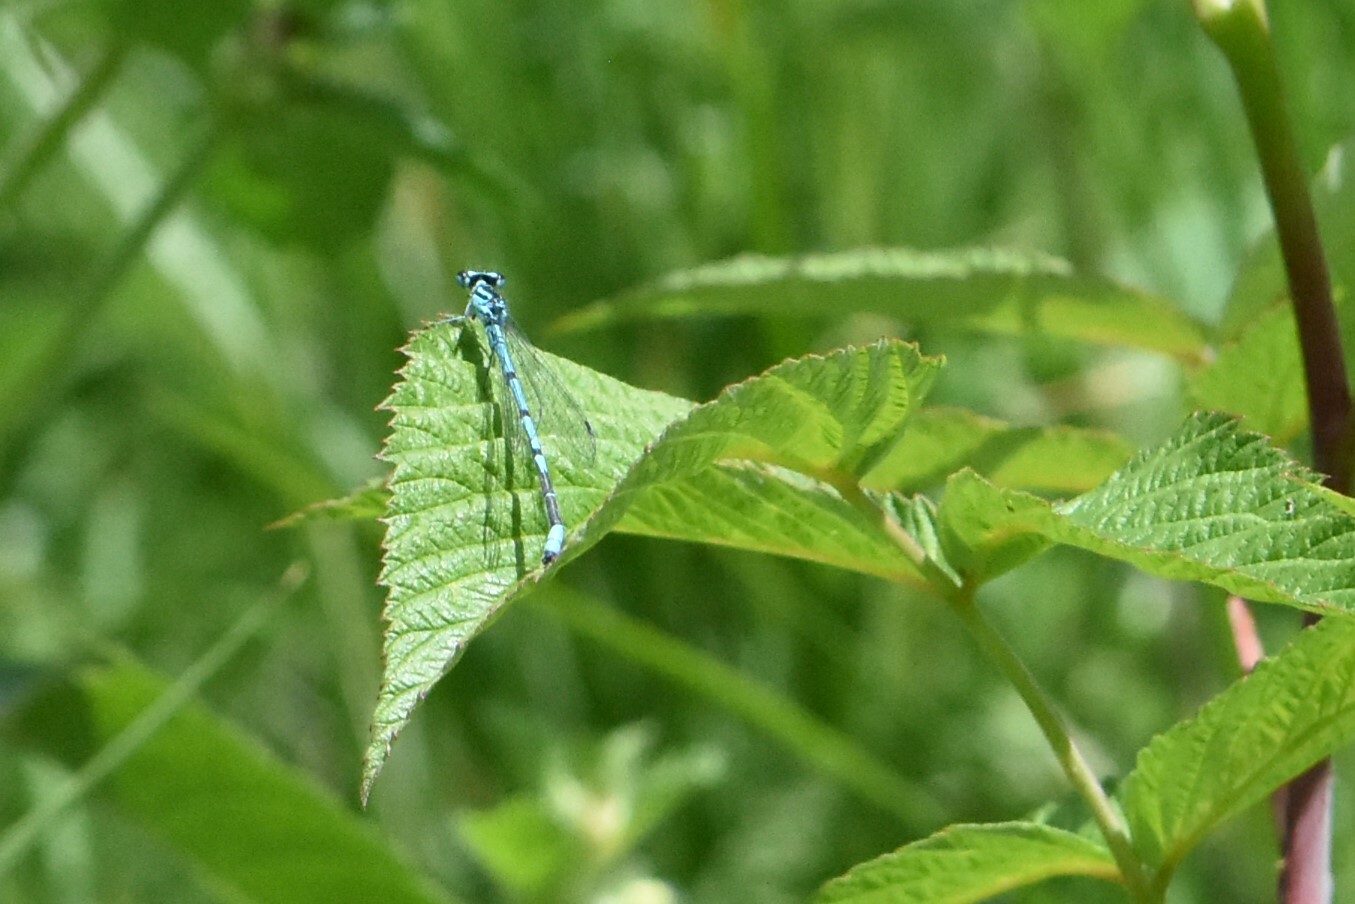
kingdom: Animalia
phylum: Arthropoda
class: Insecta
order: Odonata
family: Coenagrionidae
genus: Coenagrion
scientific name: Coenagrion puella
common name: Azure damselfly
